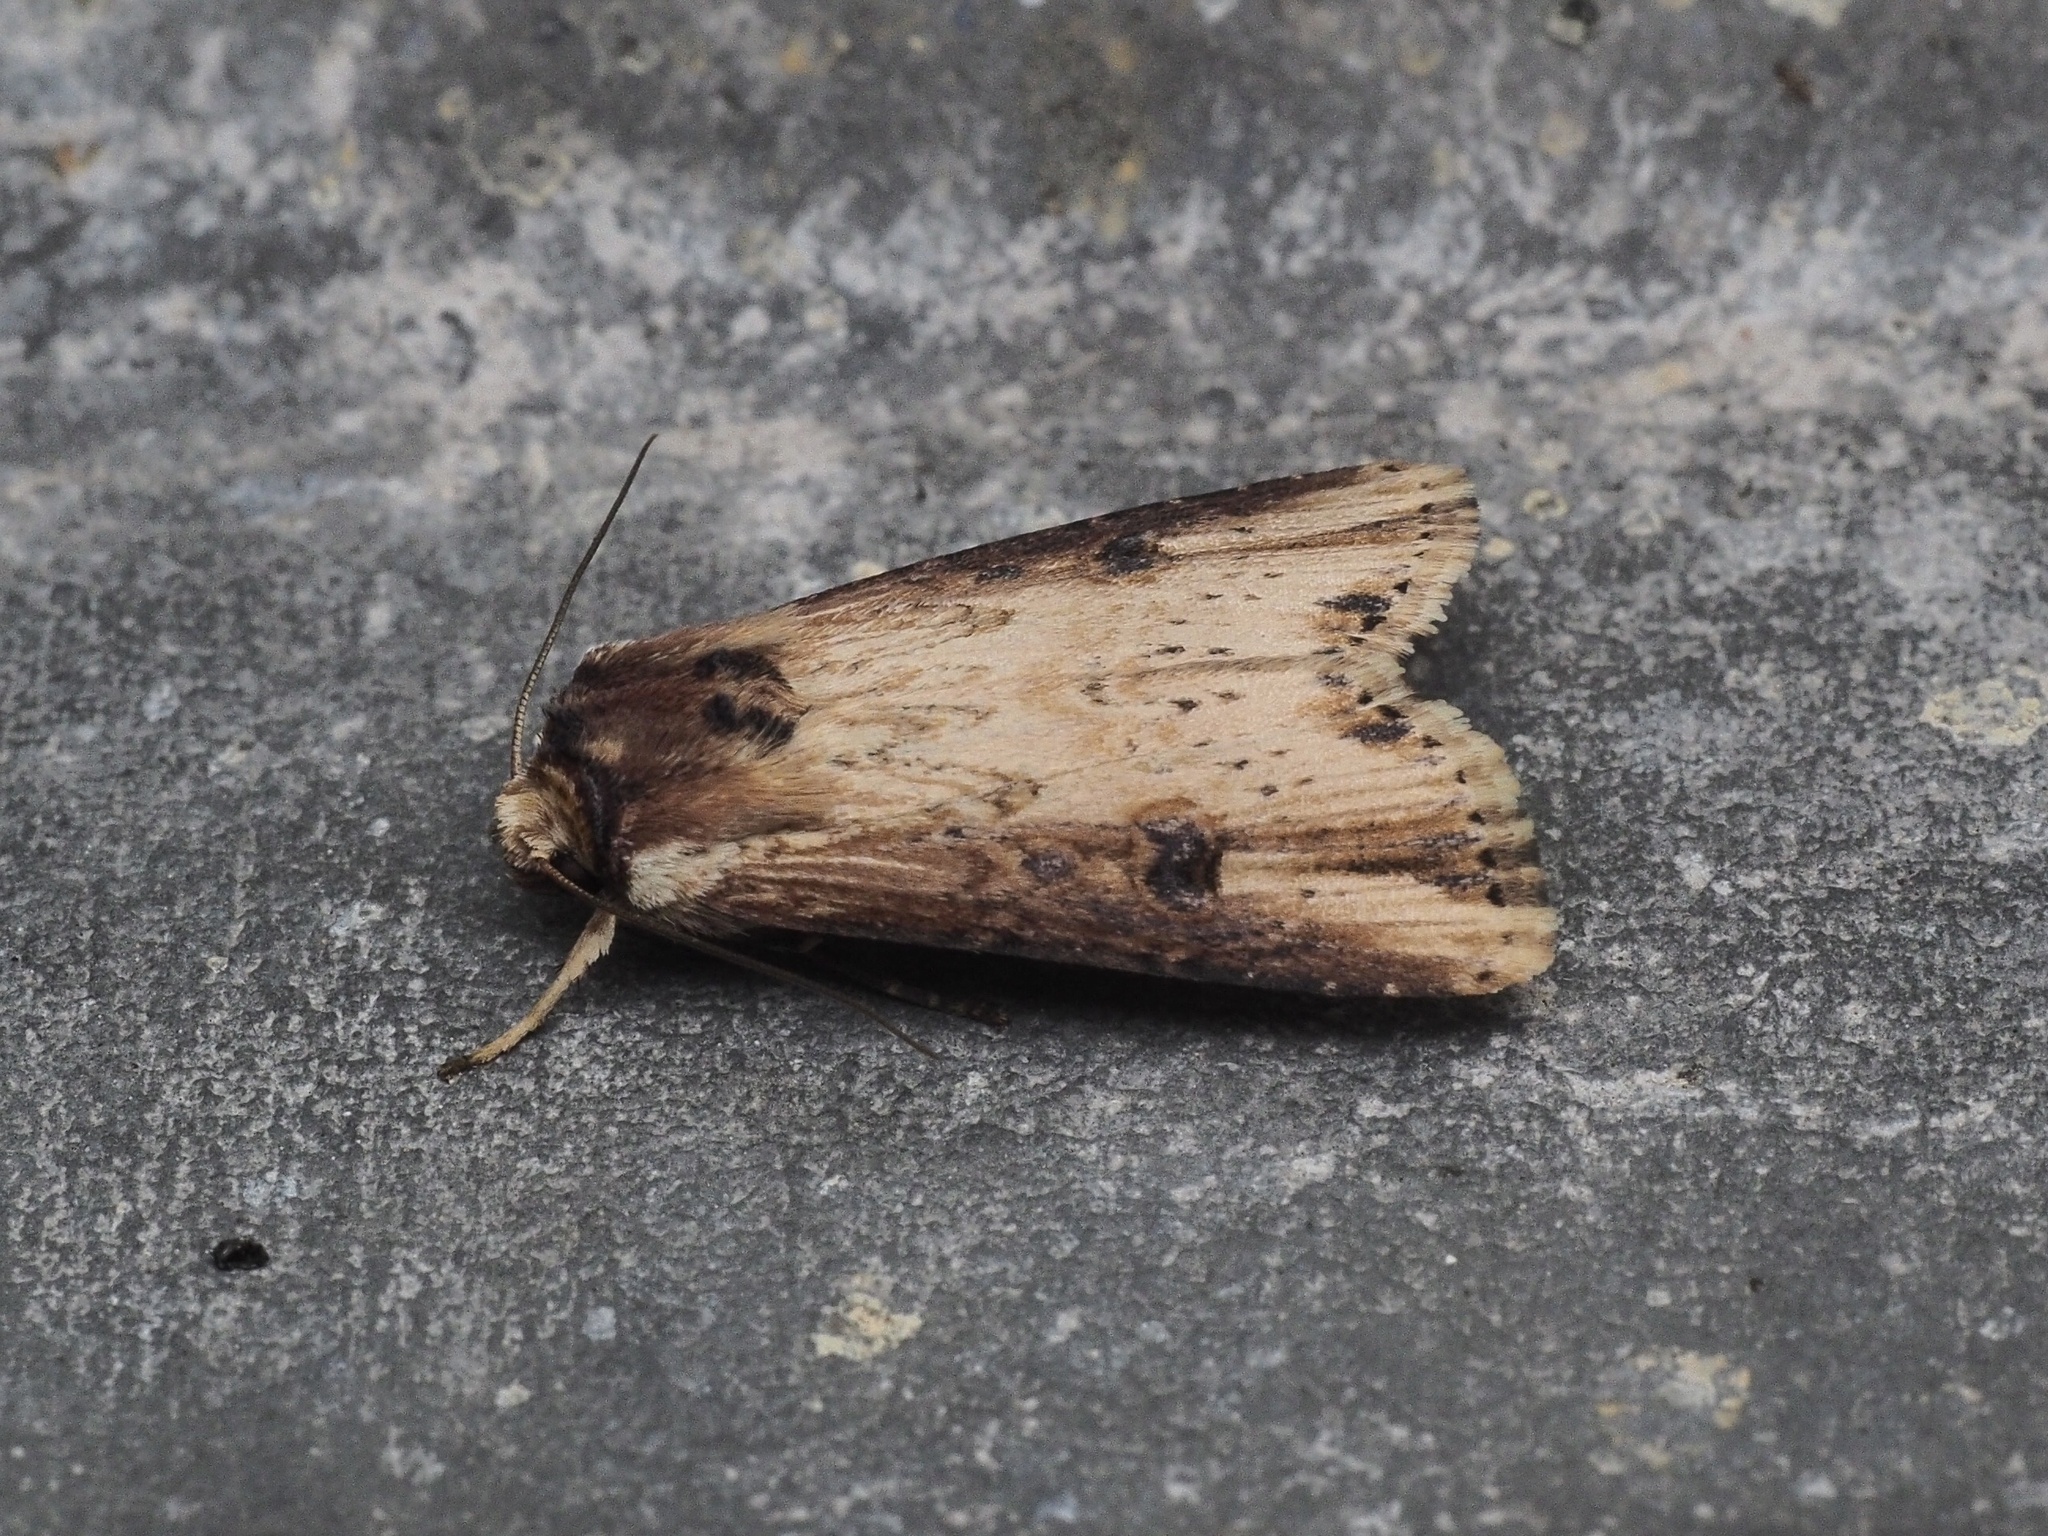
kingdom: Animalia
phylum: Arthropoda
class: Insecta
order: Lepidoptera
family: Noctuidae
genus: Axylia
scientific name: Axylia putris
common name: Flame
